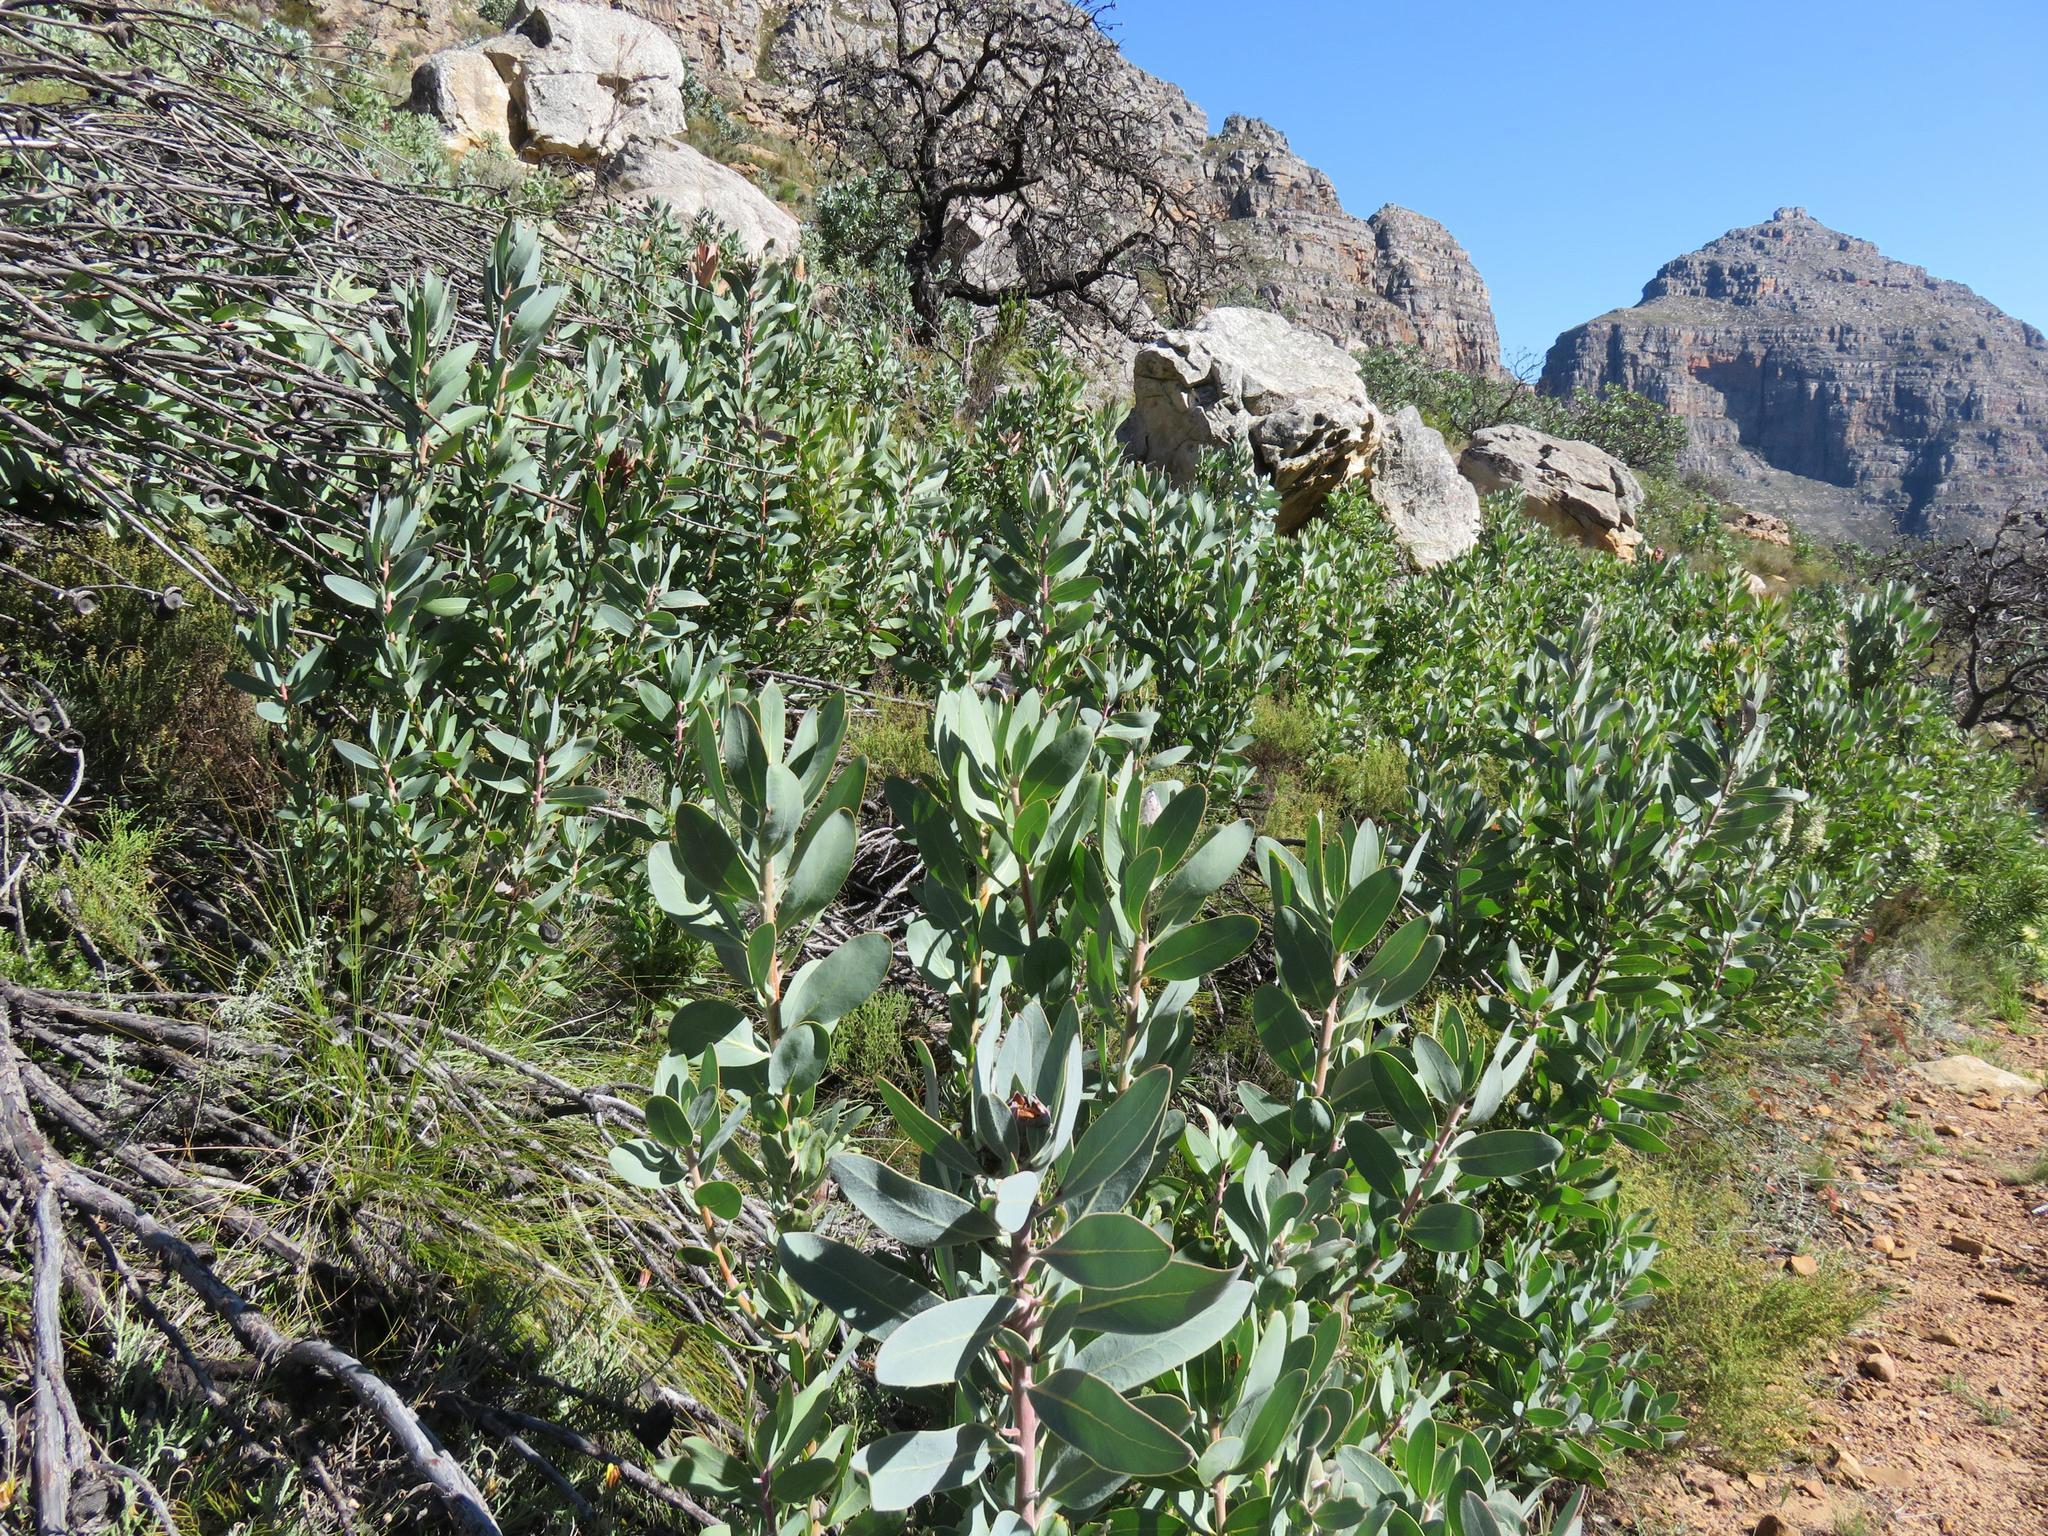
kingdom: Plantae
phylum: Tracheophyta
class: Magnoliopsida
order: Proteales
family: Proteaceae
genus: Protea
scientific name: Protea laurifolia
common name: Grey-leaf sugarbsh
